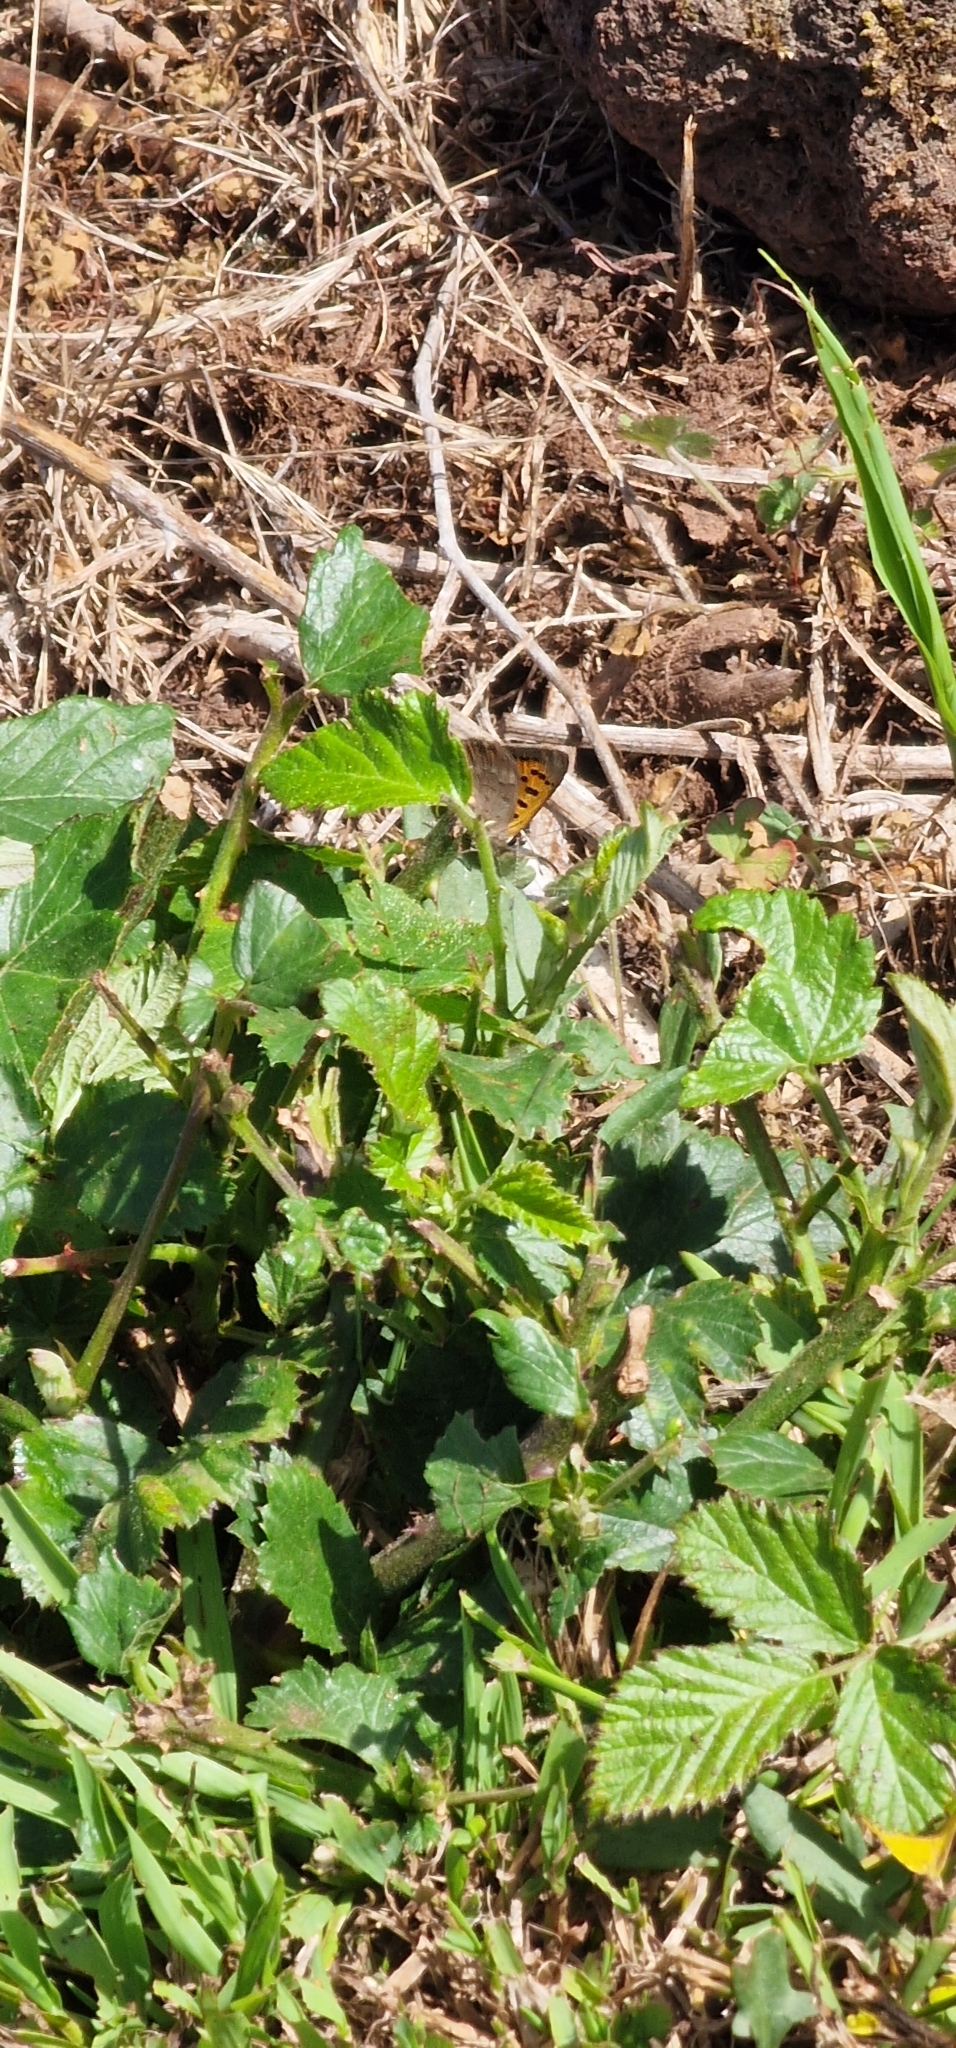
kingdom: Animalia
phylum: Arthropoda
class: Insecta
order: Lepidoptera
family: Lycaenidae
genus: Lycaena
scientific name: Lycaena phlaeas
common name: Small copper
